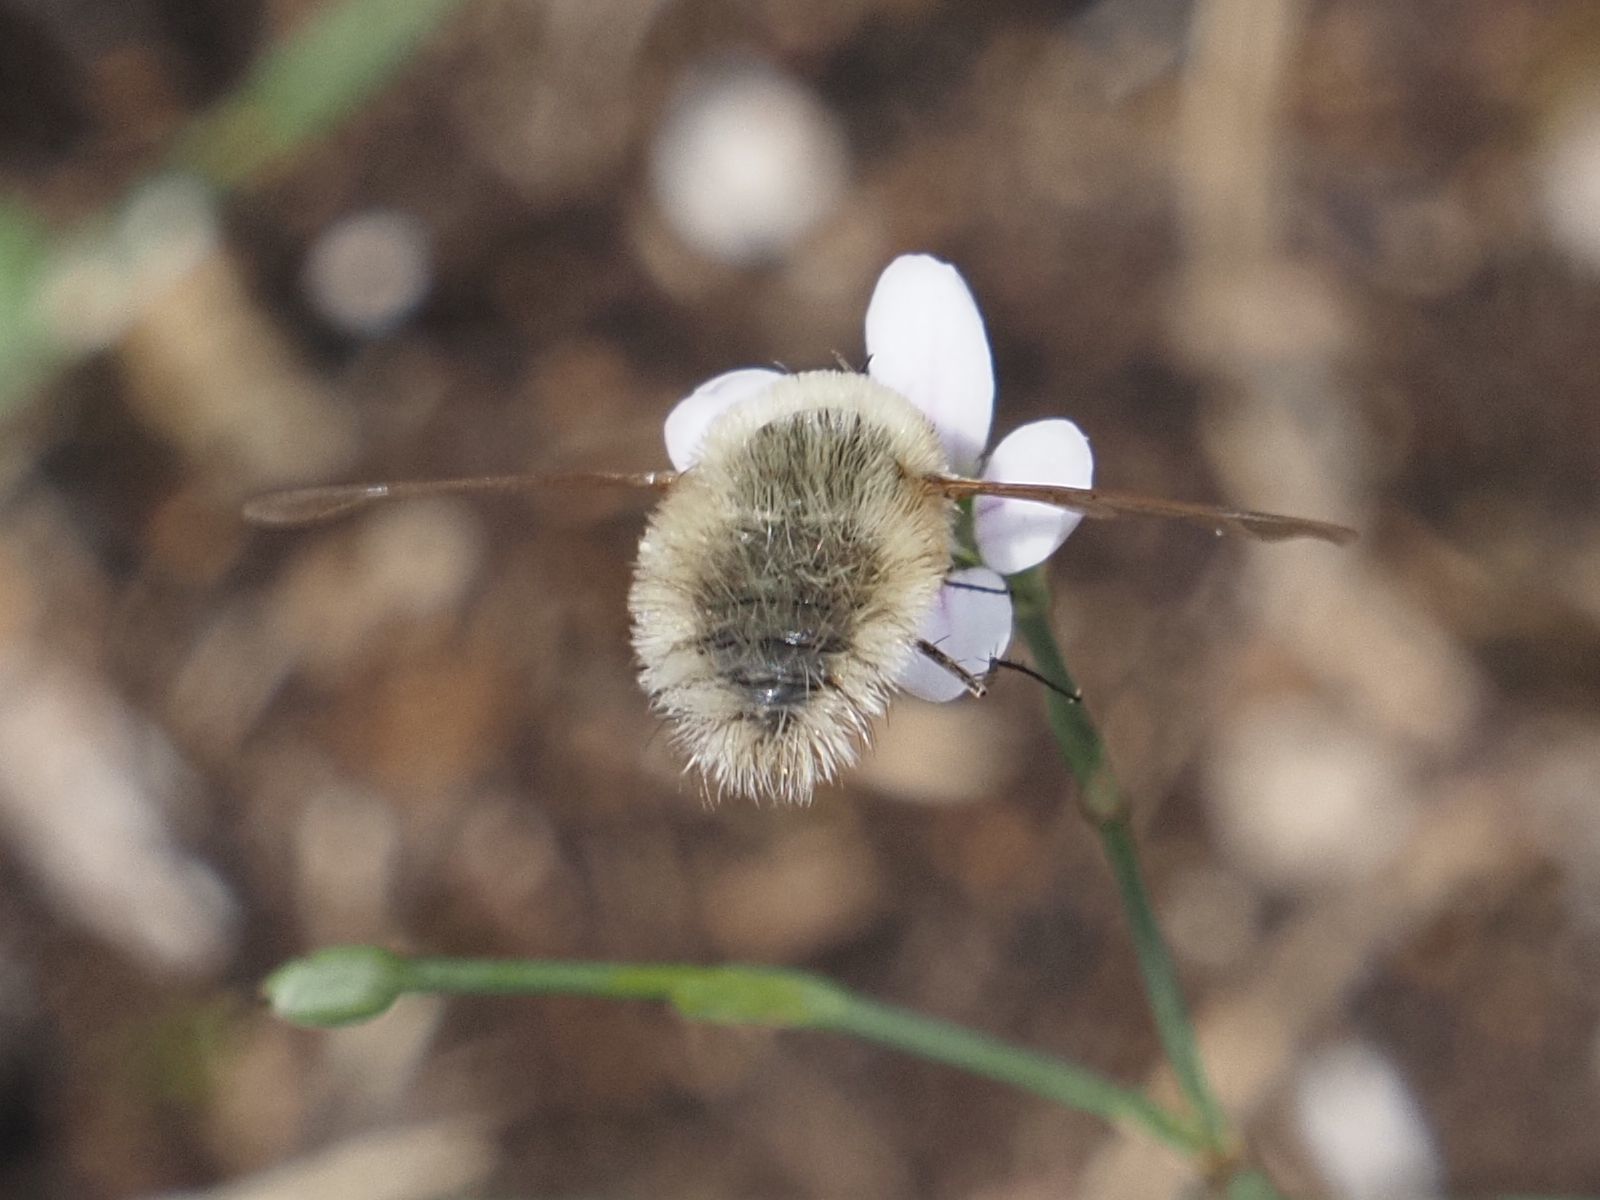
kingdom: Animalia
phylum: Arthropoda
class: Insecta
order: Diptera
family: Bombyliidae
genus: Systoechus
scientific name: Systoechus ctenopterus
